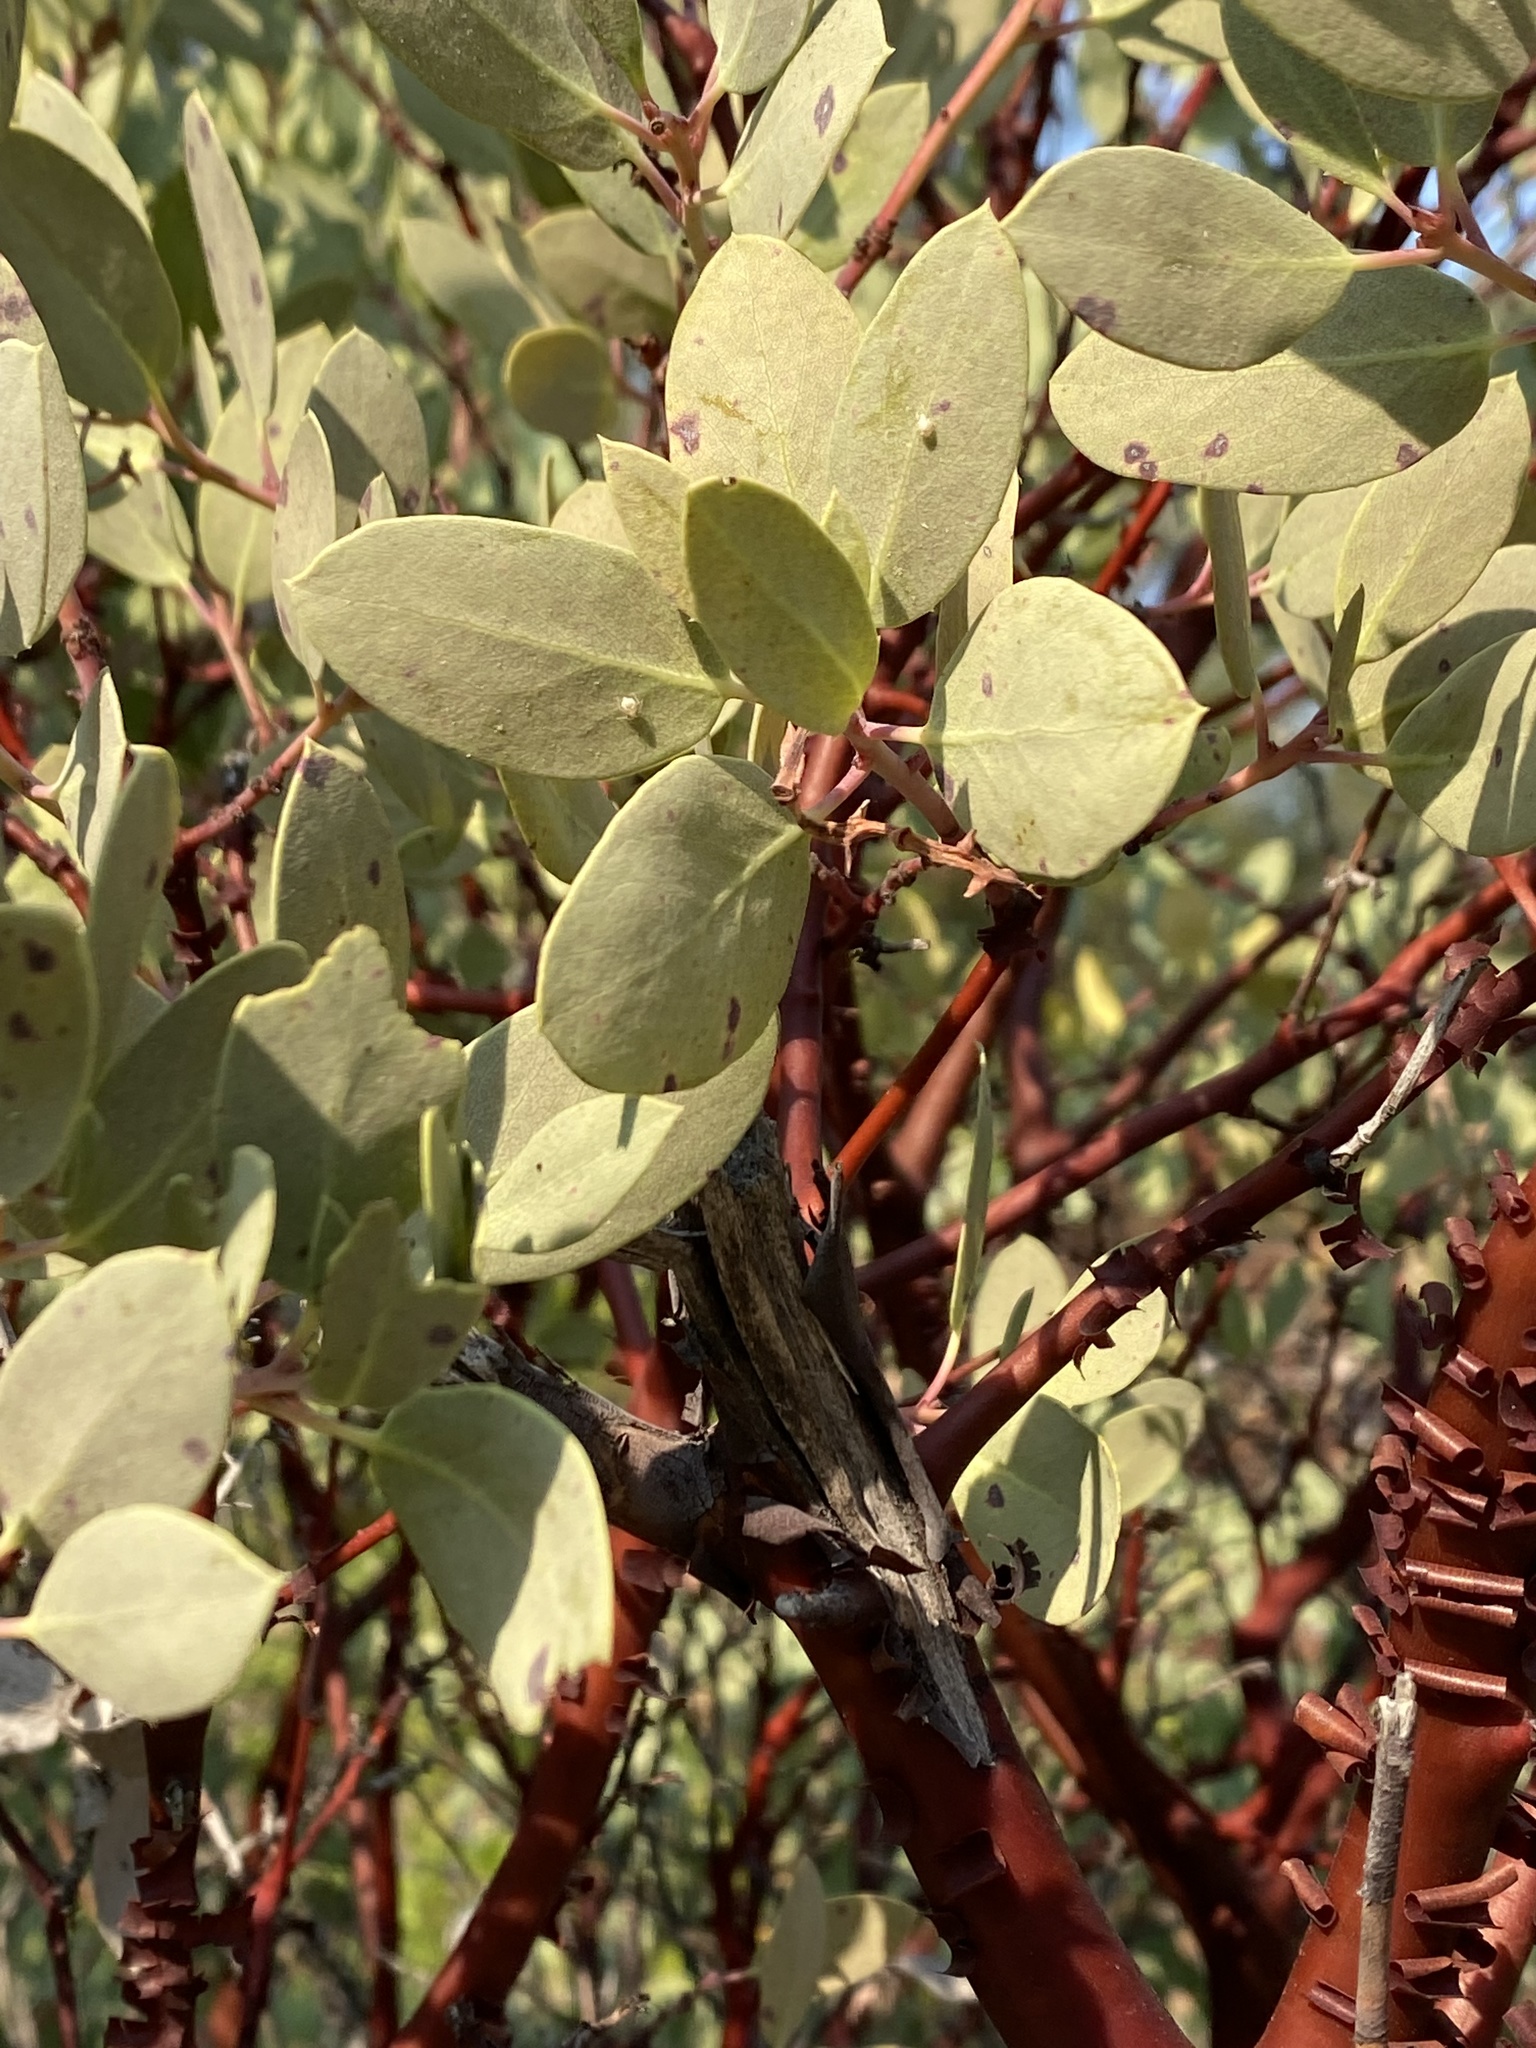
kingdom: Plantae
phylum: Tracheophyta
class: Magnoliopsida
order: Ericales
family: Ericaceae
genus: Arctostaphylos
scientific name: Arctostaphylos glauca
